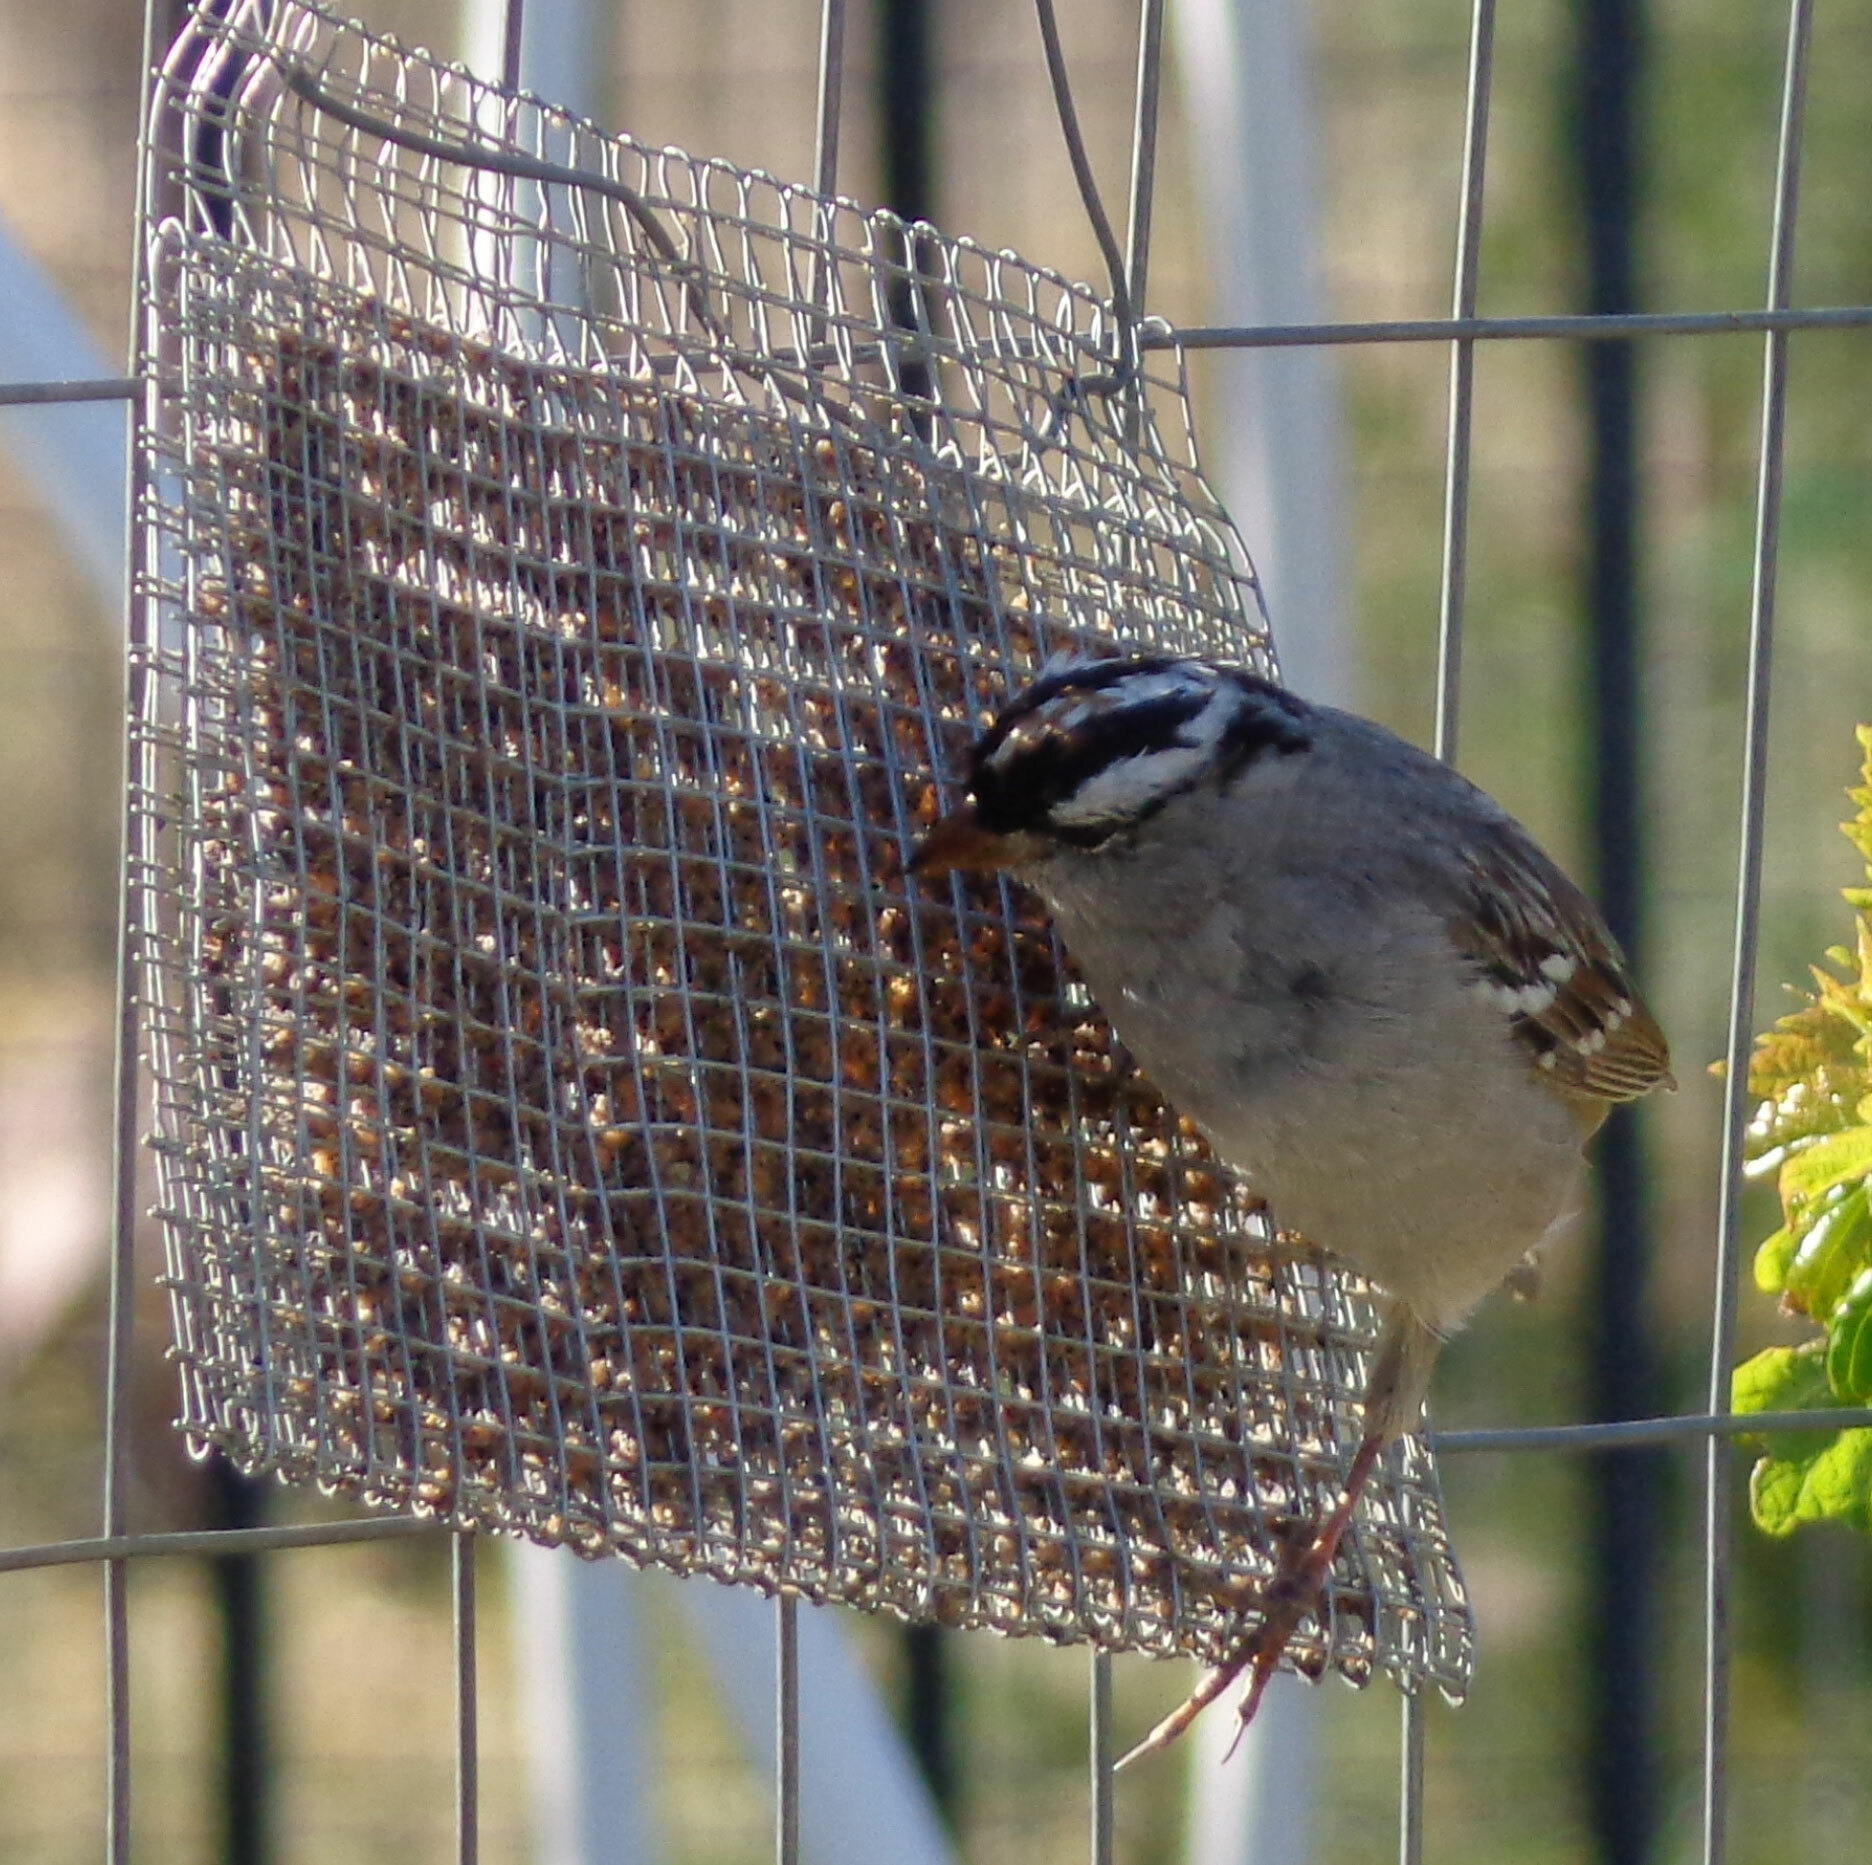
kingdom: Animalia
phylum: Chordata
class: Aves
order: Passeriformes
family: Passerellidae
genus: Zonotrichia
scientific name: Zonotrichia leucophrys
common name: White-crowned sparrow
